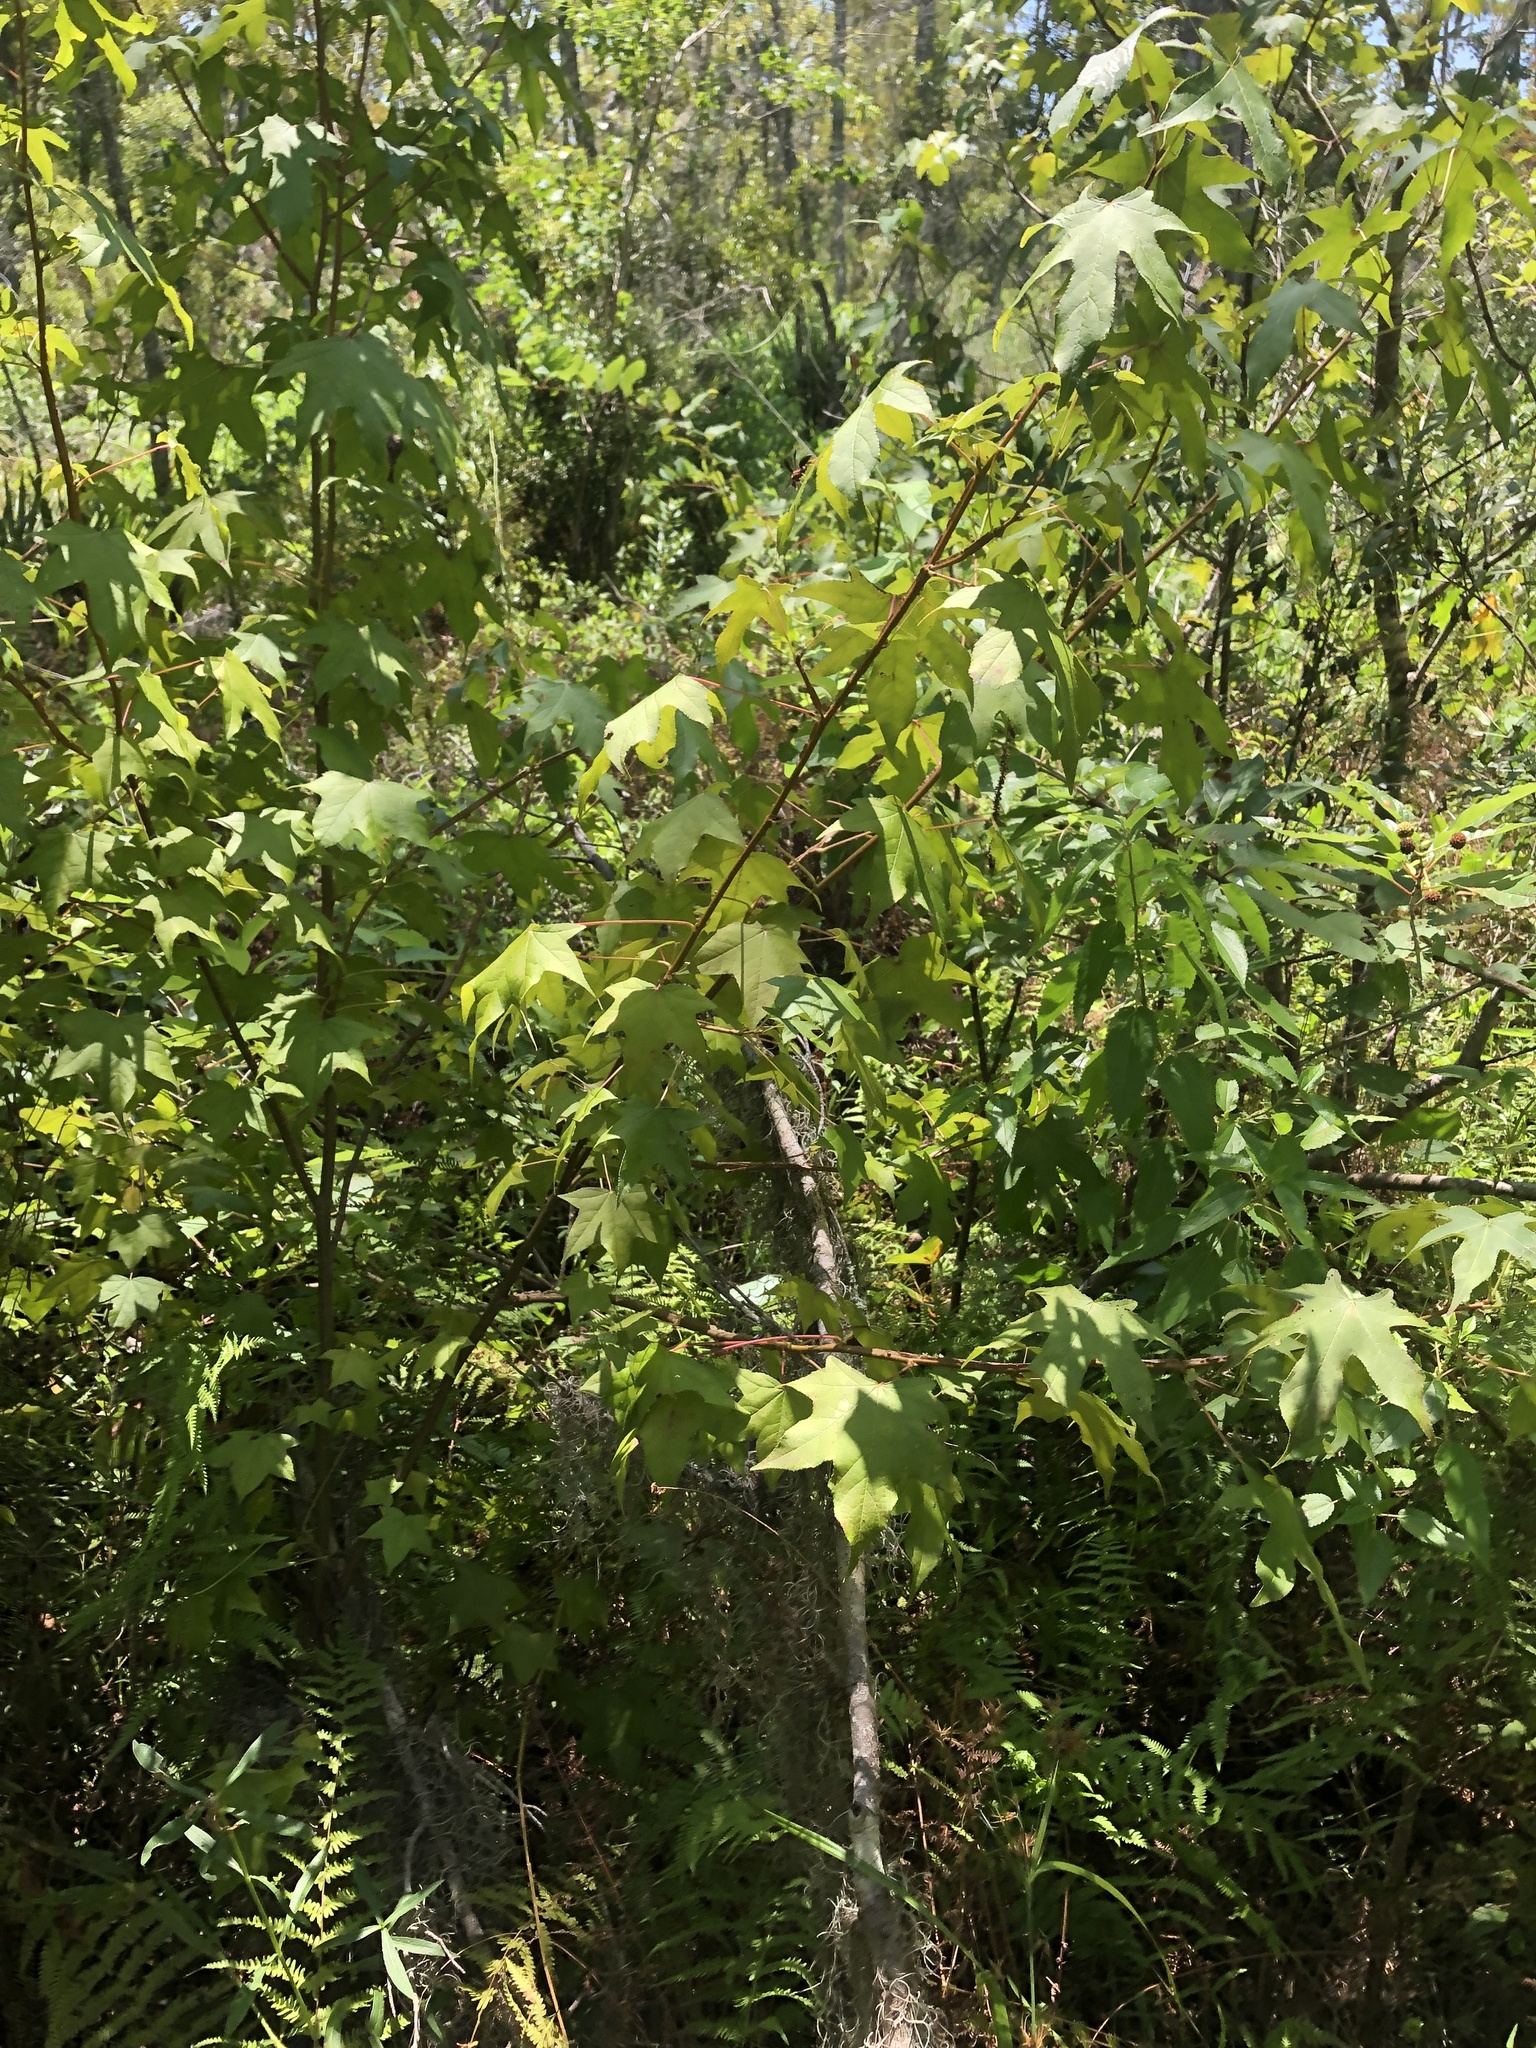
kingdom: Plantae
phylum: Tracheophyta
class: Magnoliopsida
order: Saxifragales
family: Altingiaceae
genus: Liquidambar
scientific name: Liquidambar styraciflua
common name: Sweet gum
